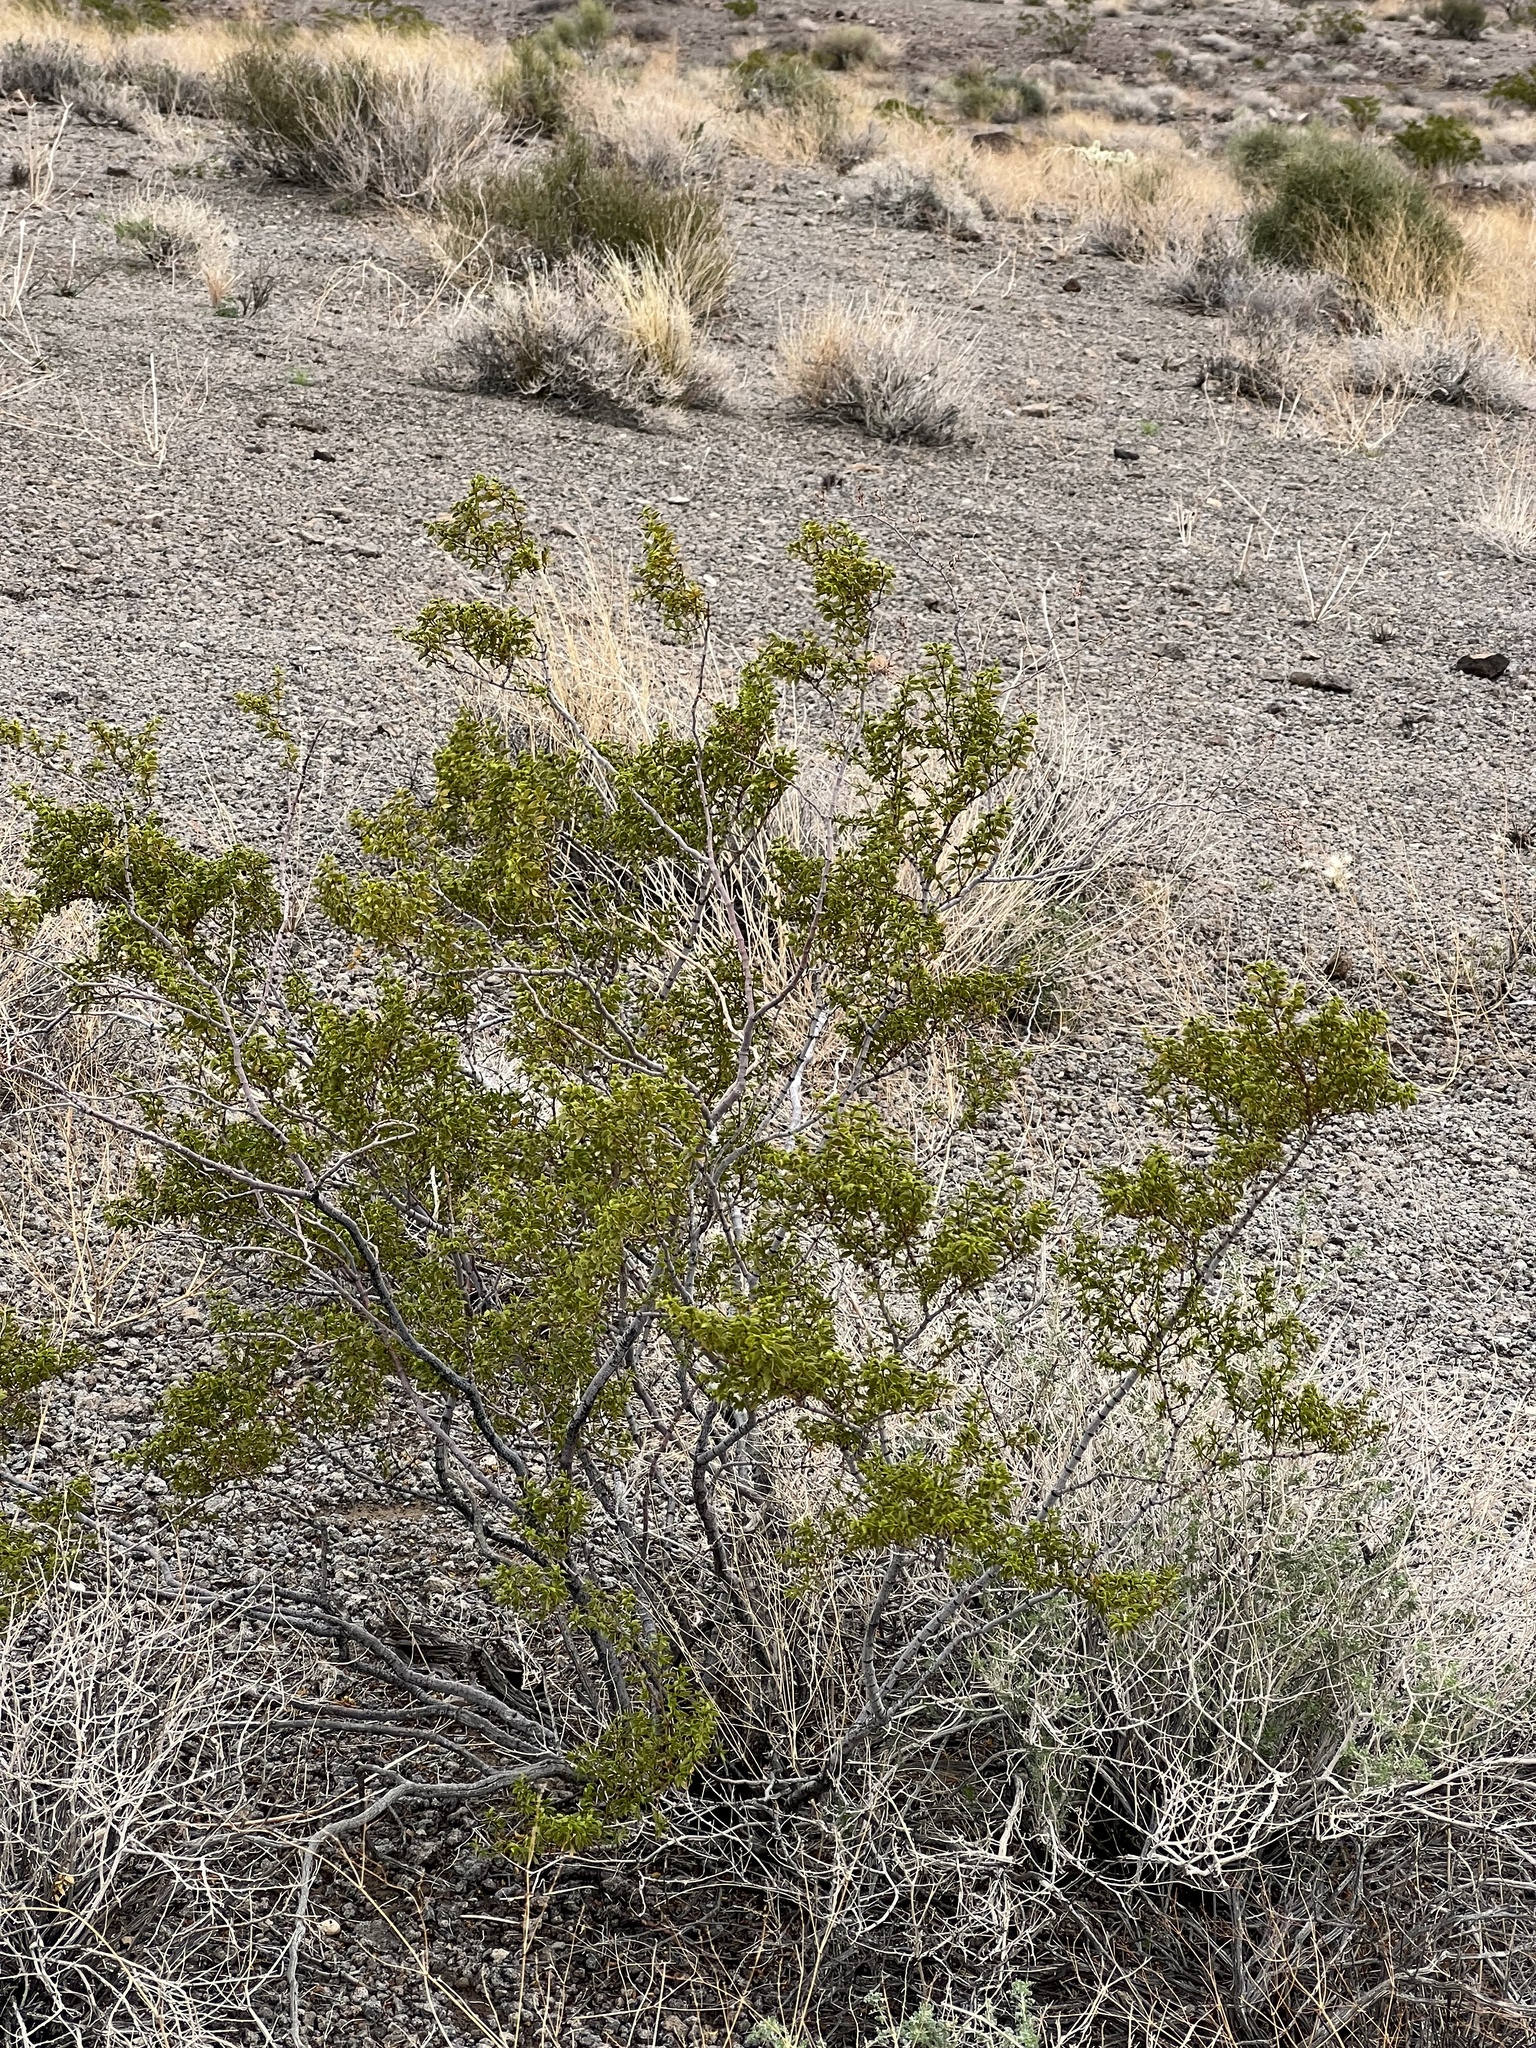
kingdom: Plantae
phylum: Tracheophyta
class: Magnoliopsida
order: Zygophyllales
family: Zygophyllaceae
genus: Larrea
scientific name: Larrea tridentata
